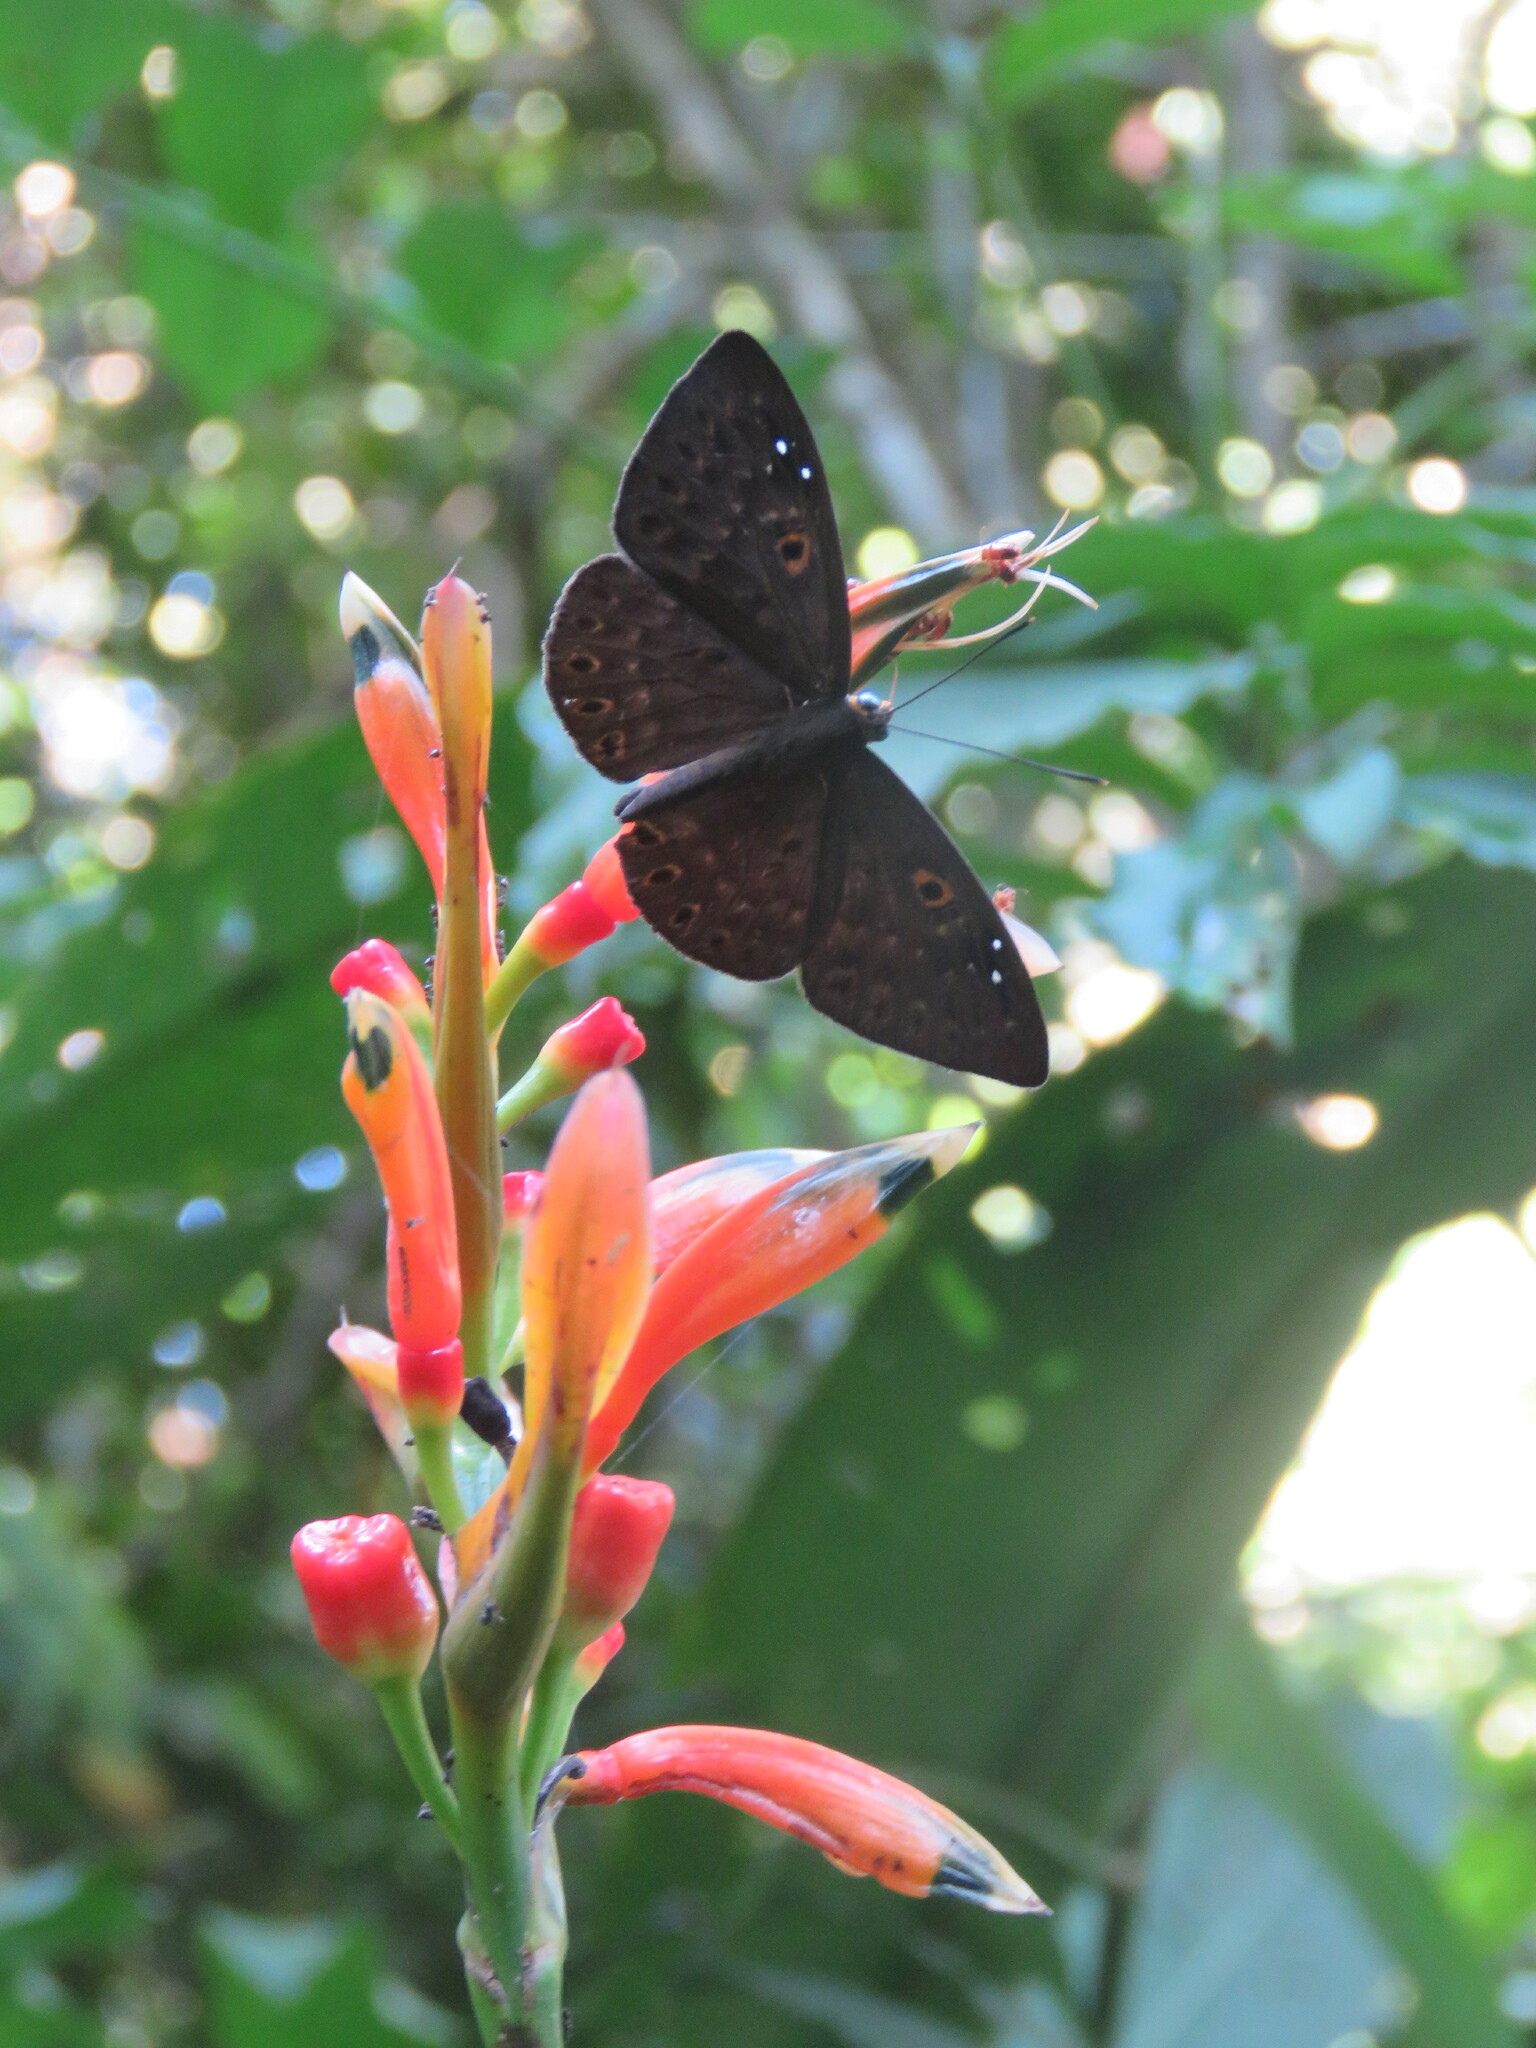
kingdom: Animalia
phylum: Cnidaria
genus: Eurybia
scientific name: Eurybia dardus
